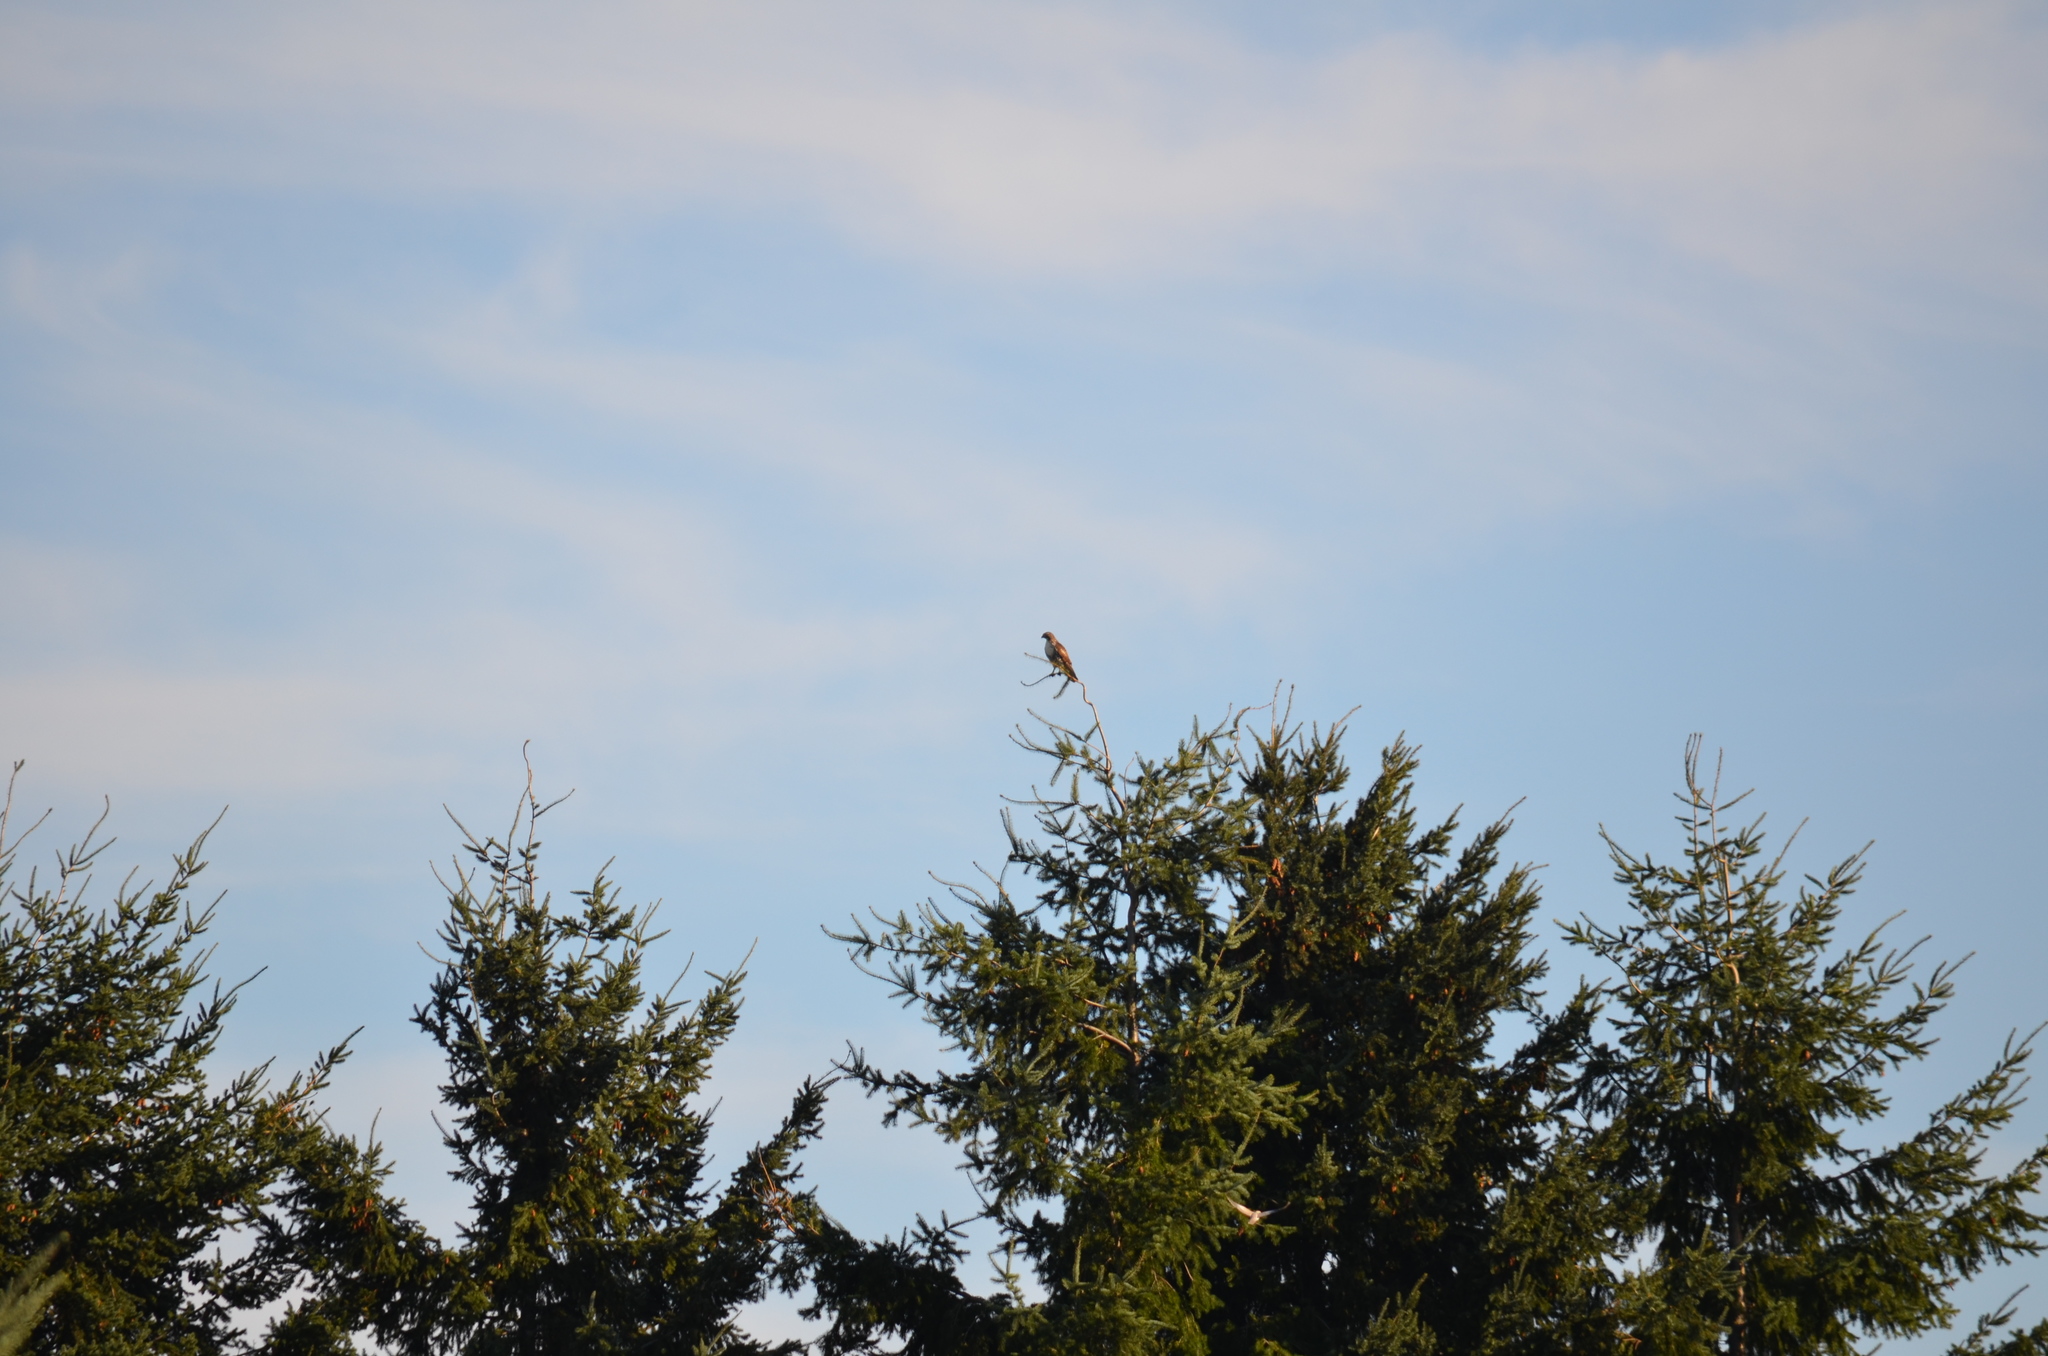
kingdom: Animalia
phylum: Chordata
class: Aves
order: Accipitriformes
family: Accipitridae
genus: Buteo
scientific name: Buteo jamaicensis
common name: Red-tailed hawk
